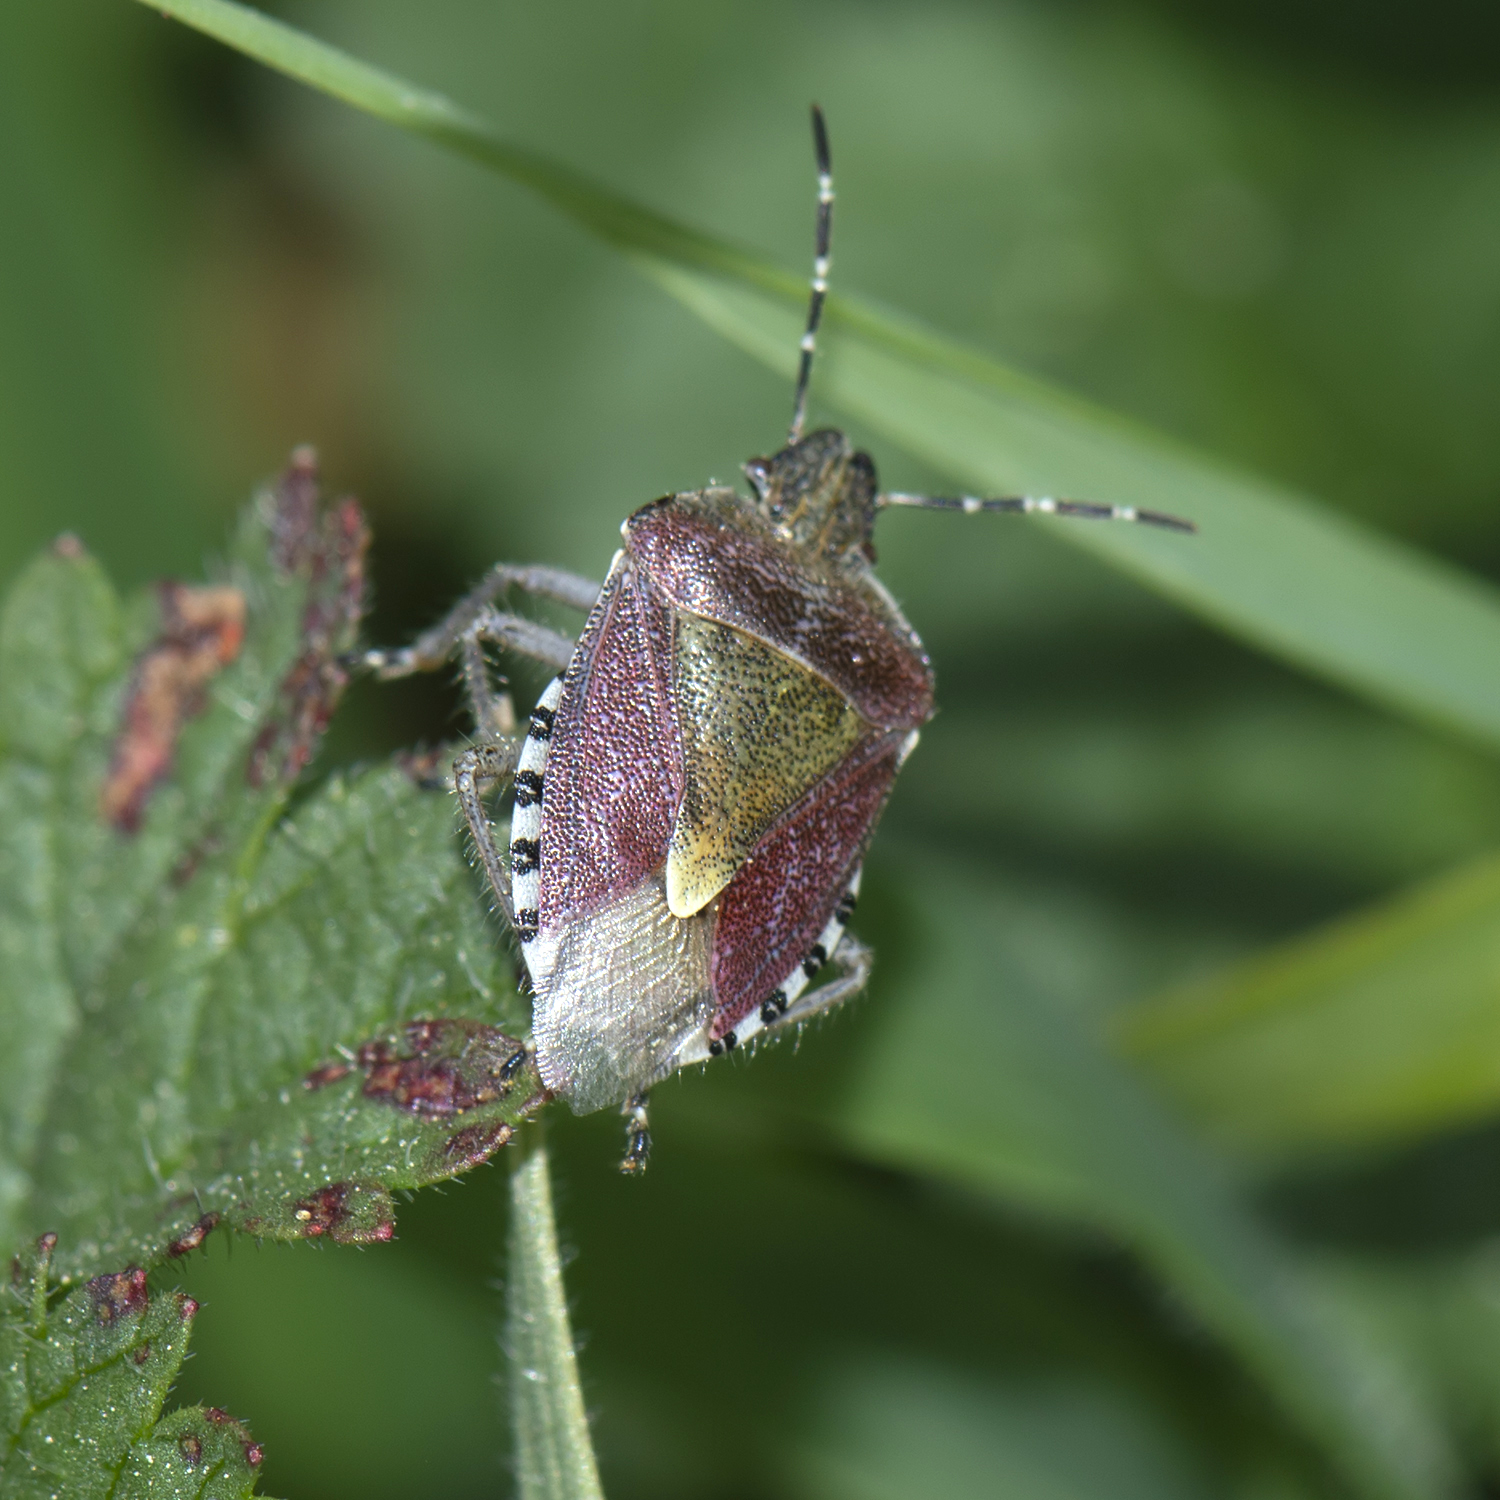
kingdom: Animalia
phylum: Arthropoda
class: Insecta
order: Hemiptera
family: Pentatomidae
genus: Dolycoris
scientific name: Dolycoris baccarum
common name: Sloe bug
